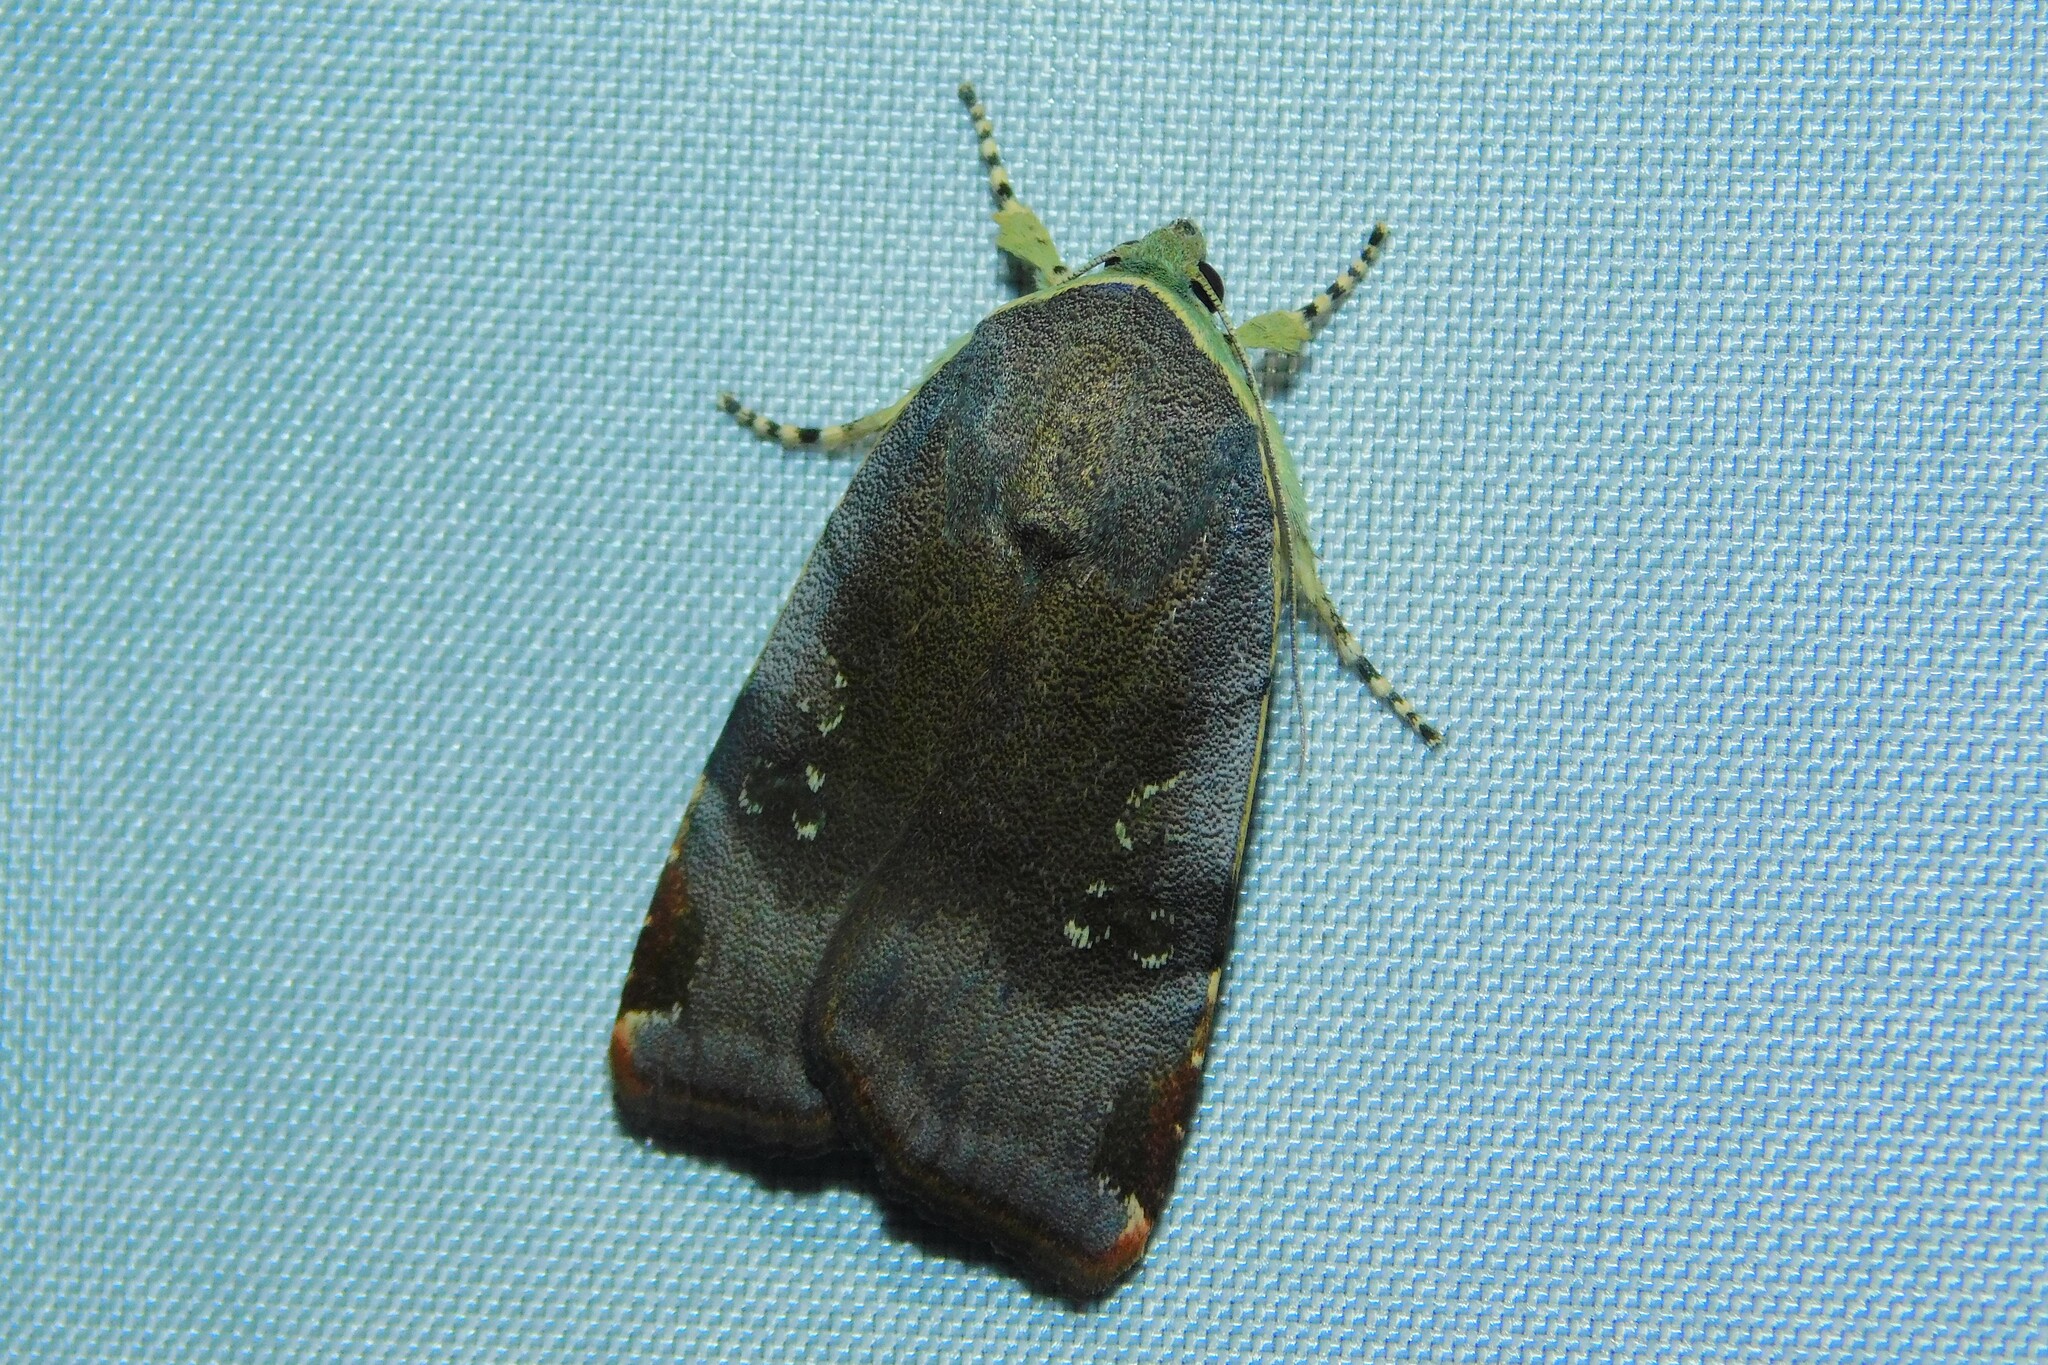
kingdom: Animalia
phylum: Arthropoda
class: Insecta
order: Lepidoptera
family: Noctuidae
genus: Noctua
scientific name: Noctua
